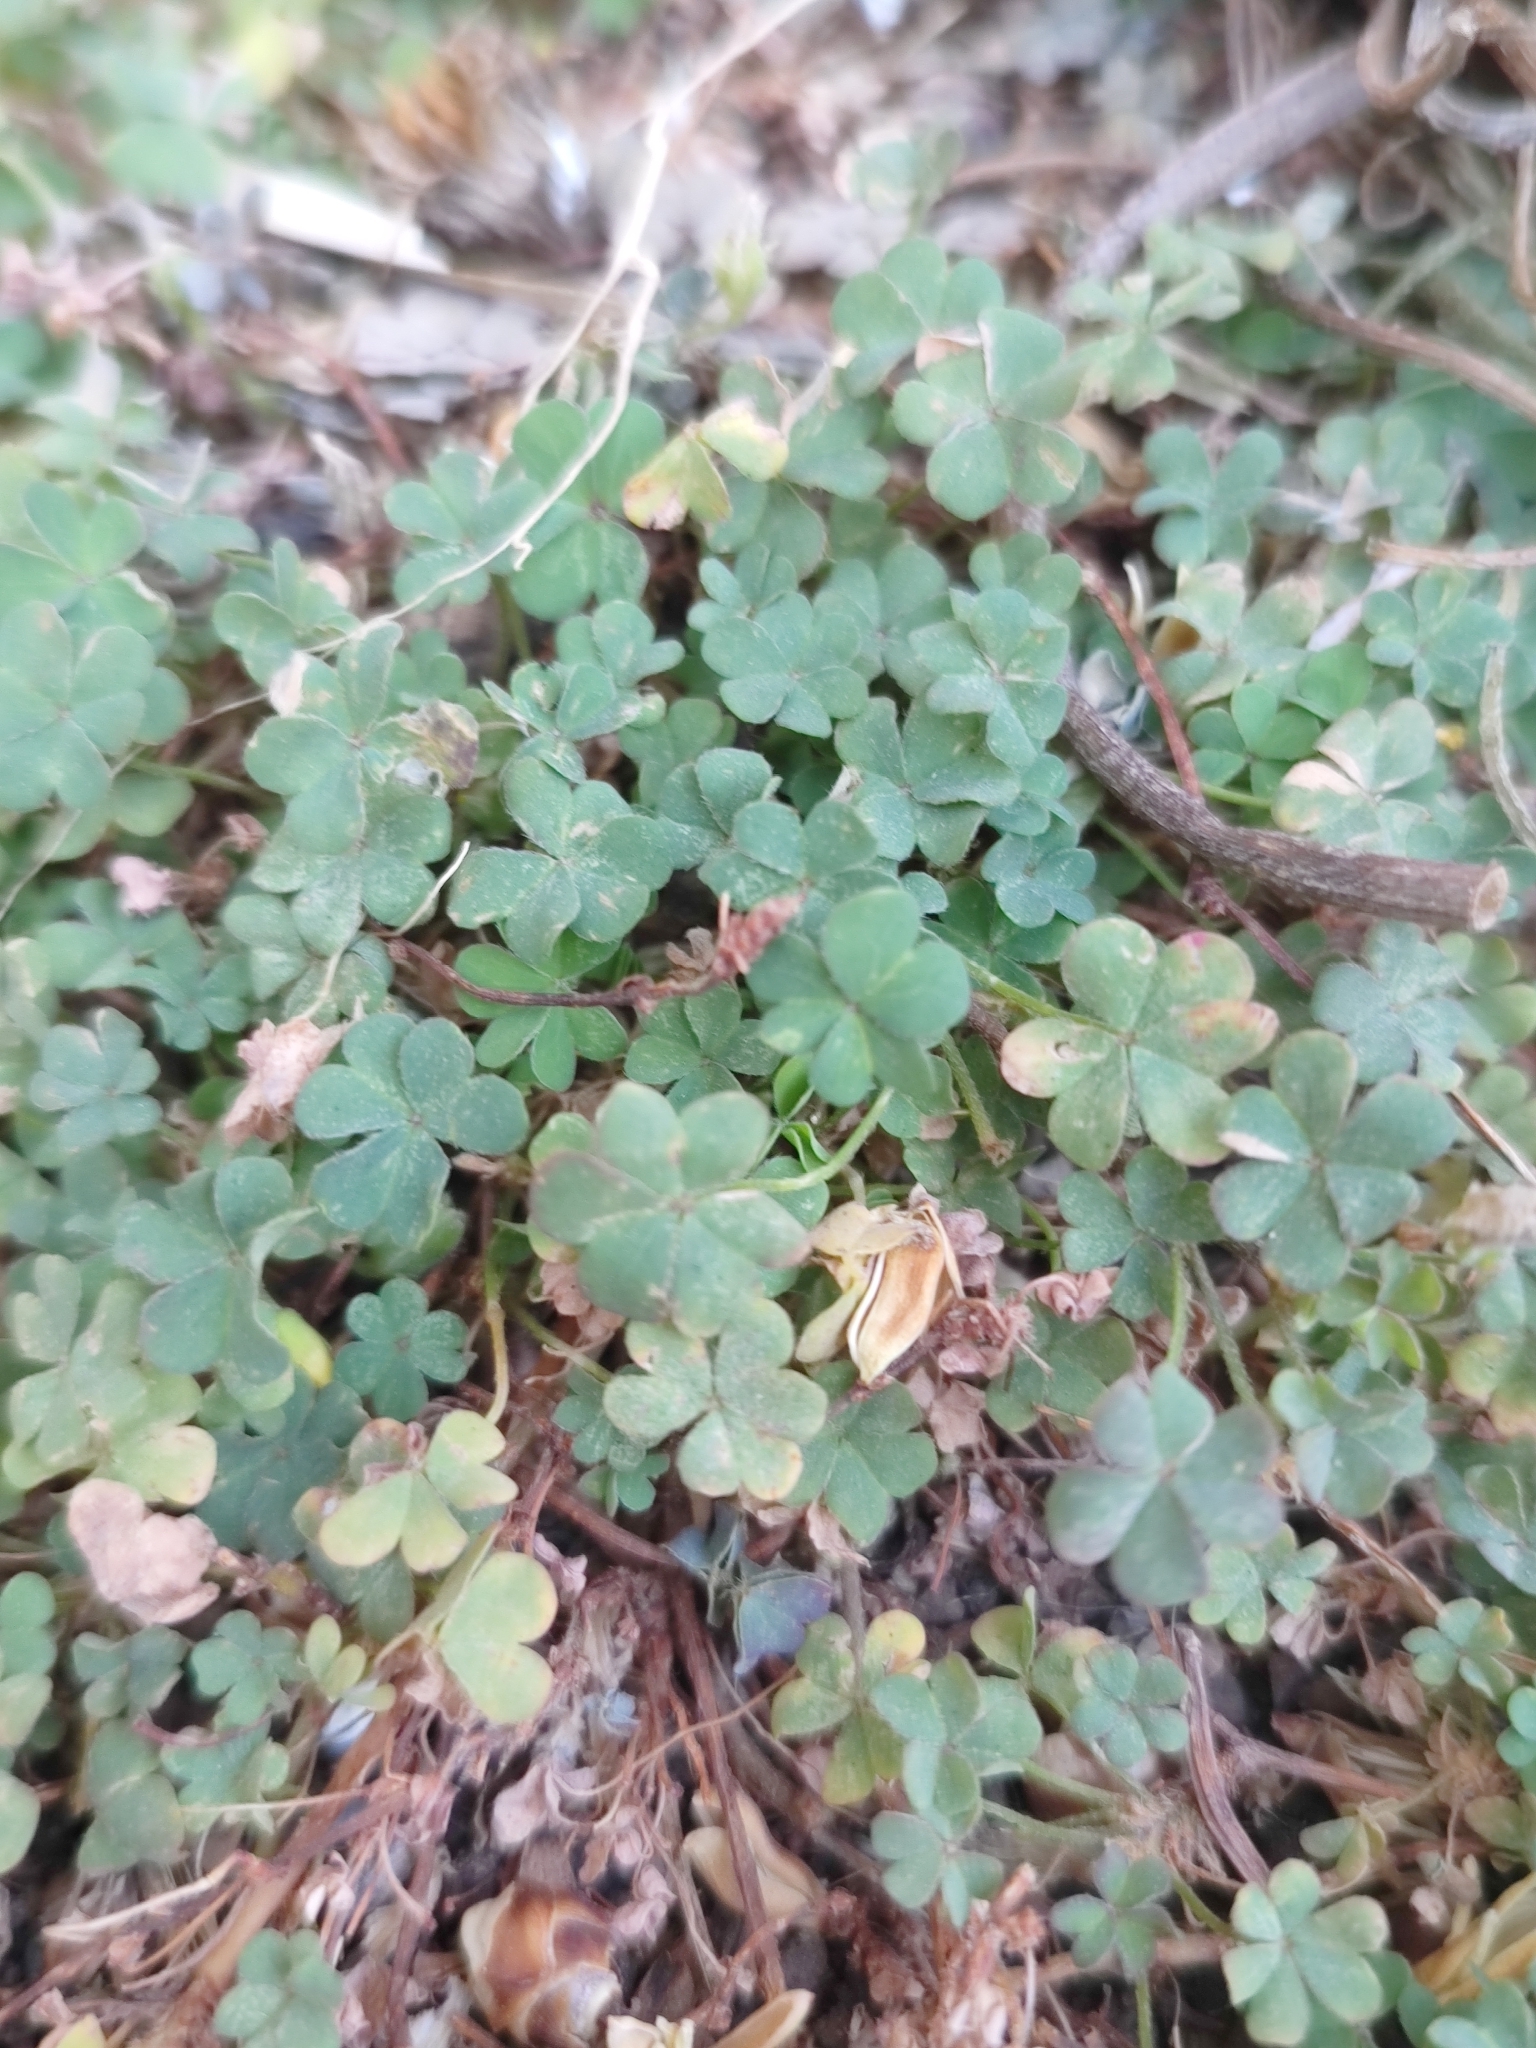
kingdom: Plantae
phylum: Tracheophyta
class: Magnoliopsida
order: Oxalidales
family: Oxalidaceae
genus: Oxalis
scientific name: Oxalis corniculata
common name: Procumbent yellow-sorrel
